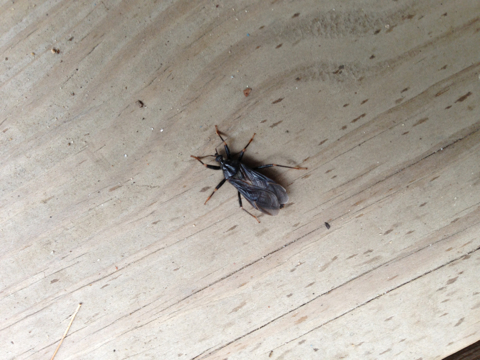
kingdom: Animalia
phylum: Arthropoda
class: Insecta
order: Hemiptera
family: Reduviidae
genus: Reduvius
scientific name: Reduvius personatus
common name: Masked hunter
